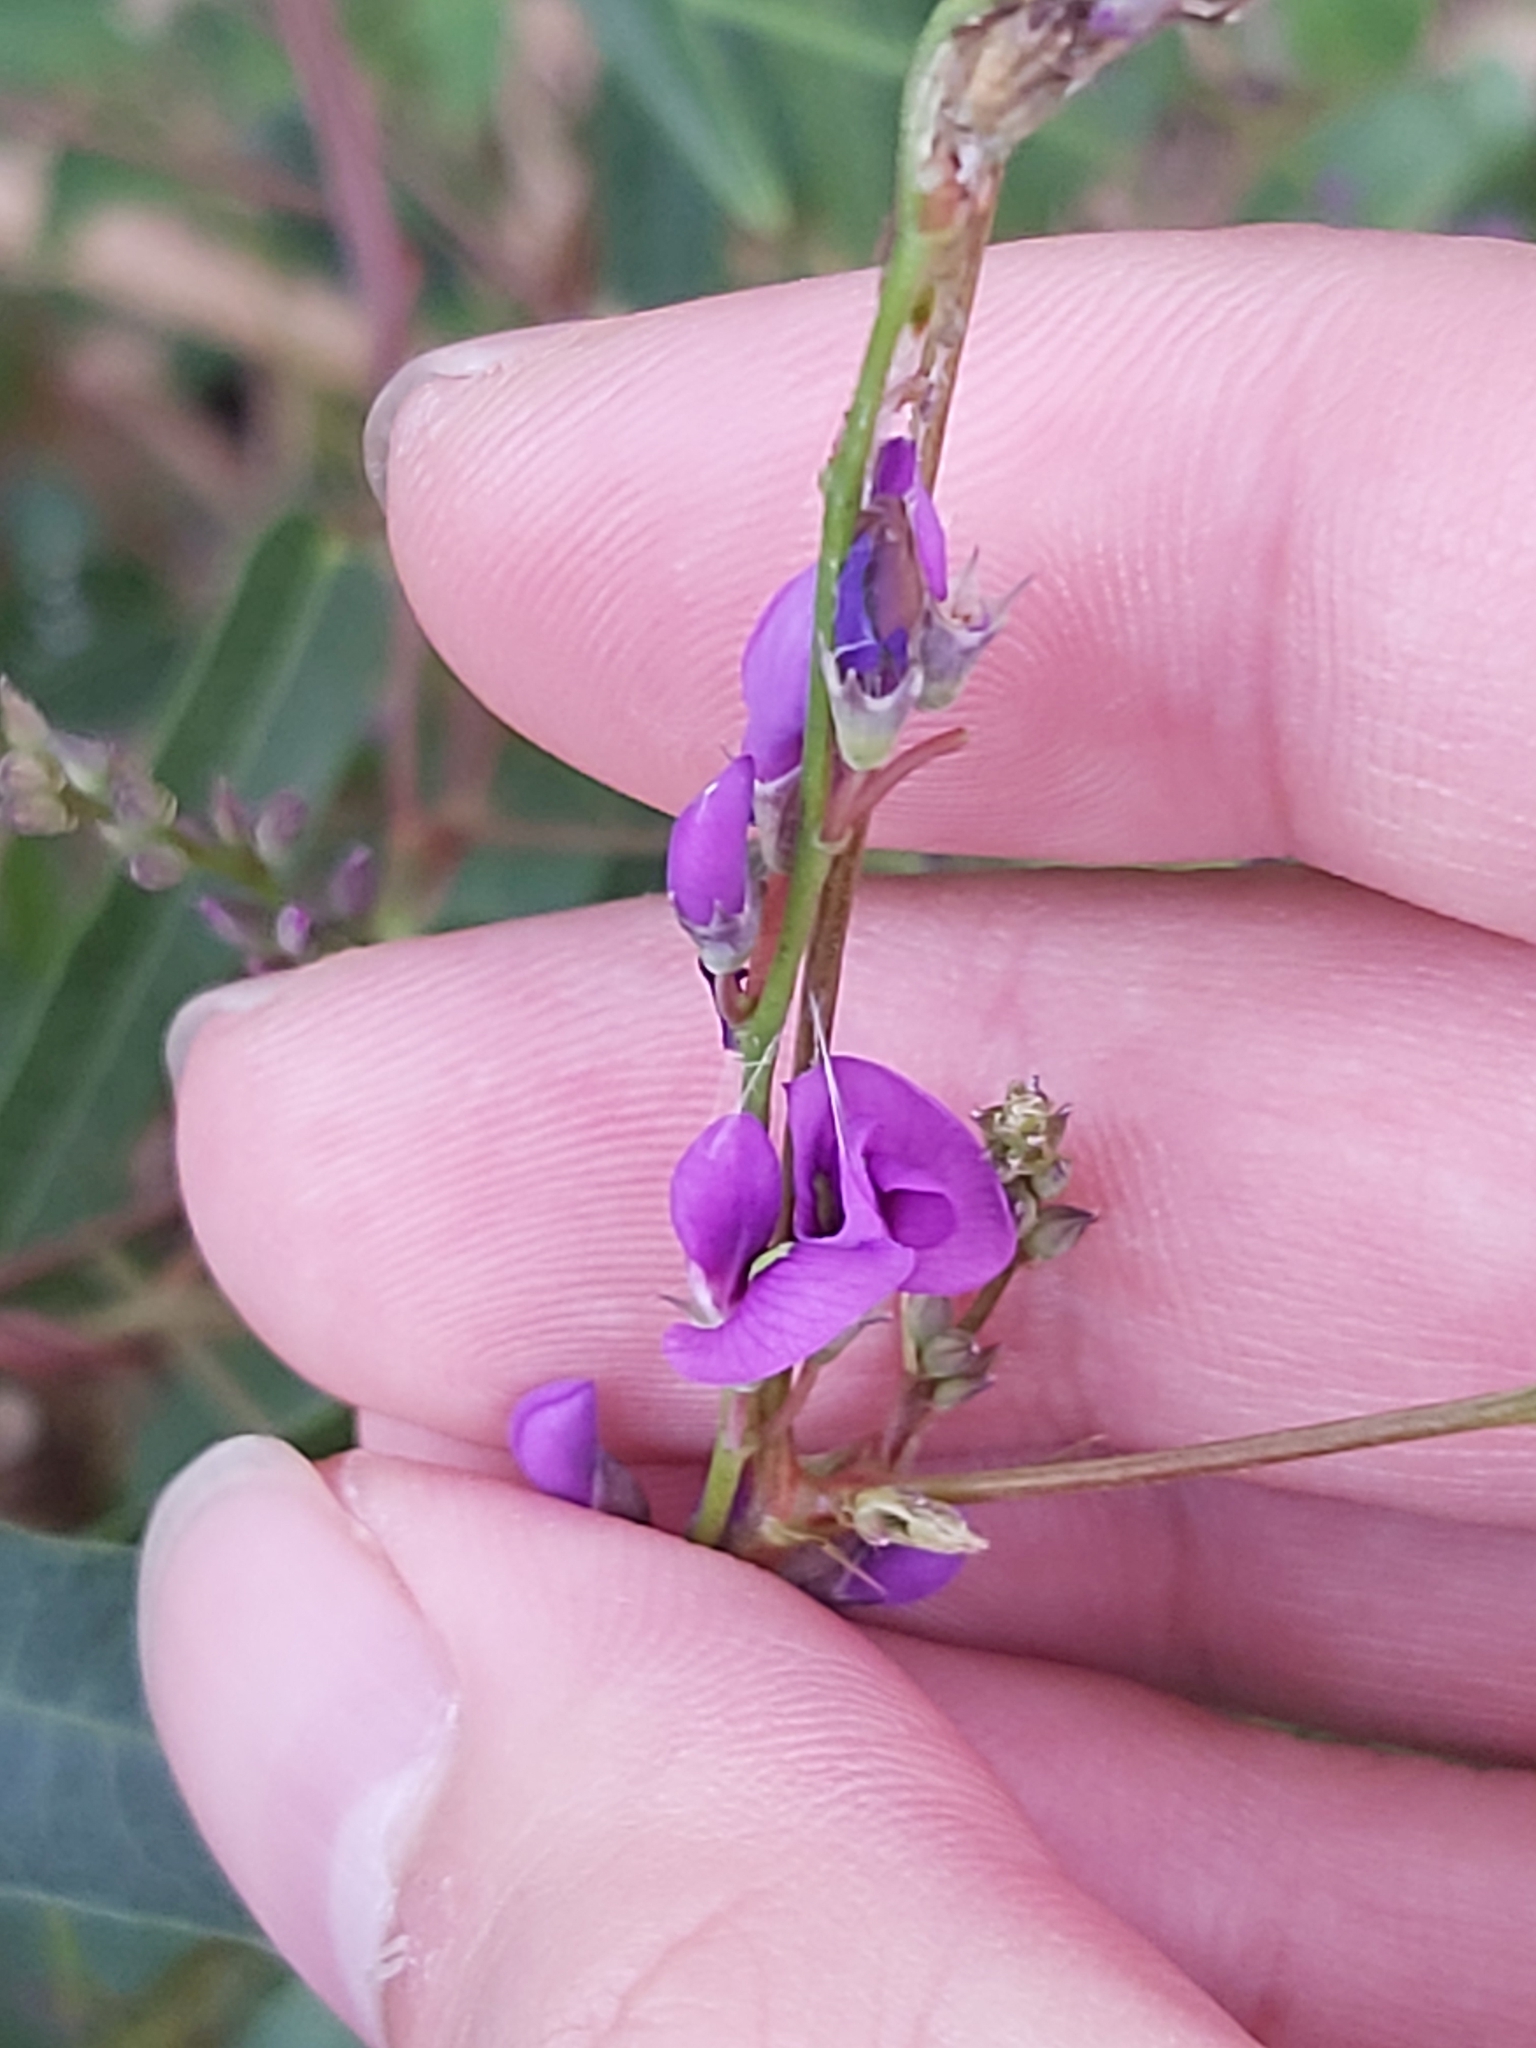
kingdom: Plantae
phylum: Tracheophyta
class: Magnoliopsida
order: Fabales
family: Fabaceae
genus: Hardenbergia
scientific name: Hardenbergia violacea
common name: Coral-pea
